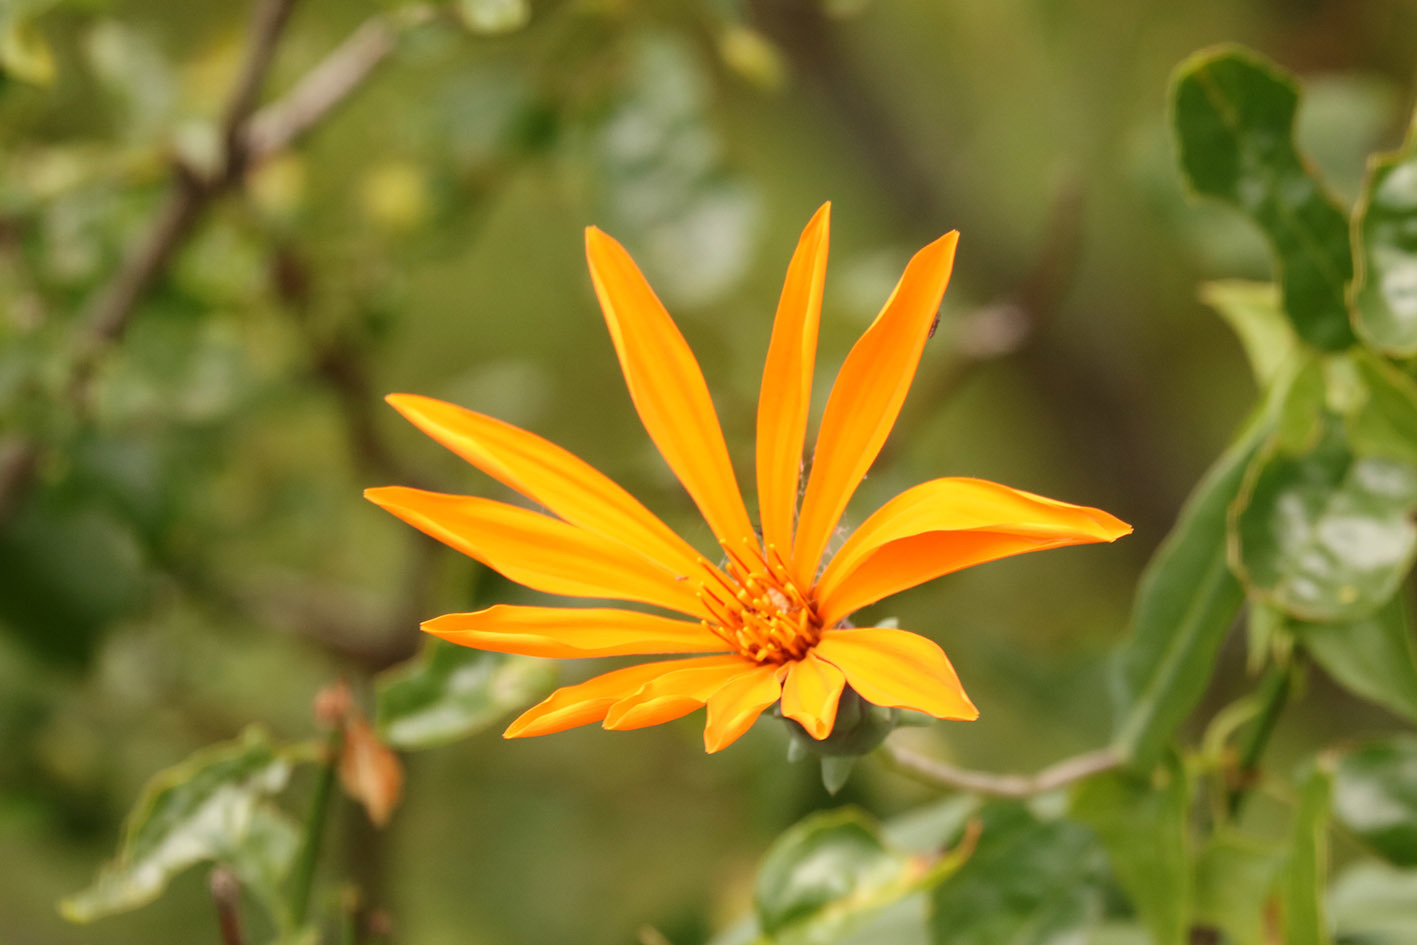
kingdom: Plantae
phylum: Tracheophyta
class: Magnoliopsida
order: Asterales
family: Asteraceae
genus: Mutisia
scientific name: Mutisia decurrens
